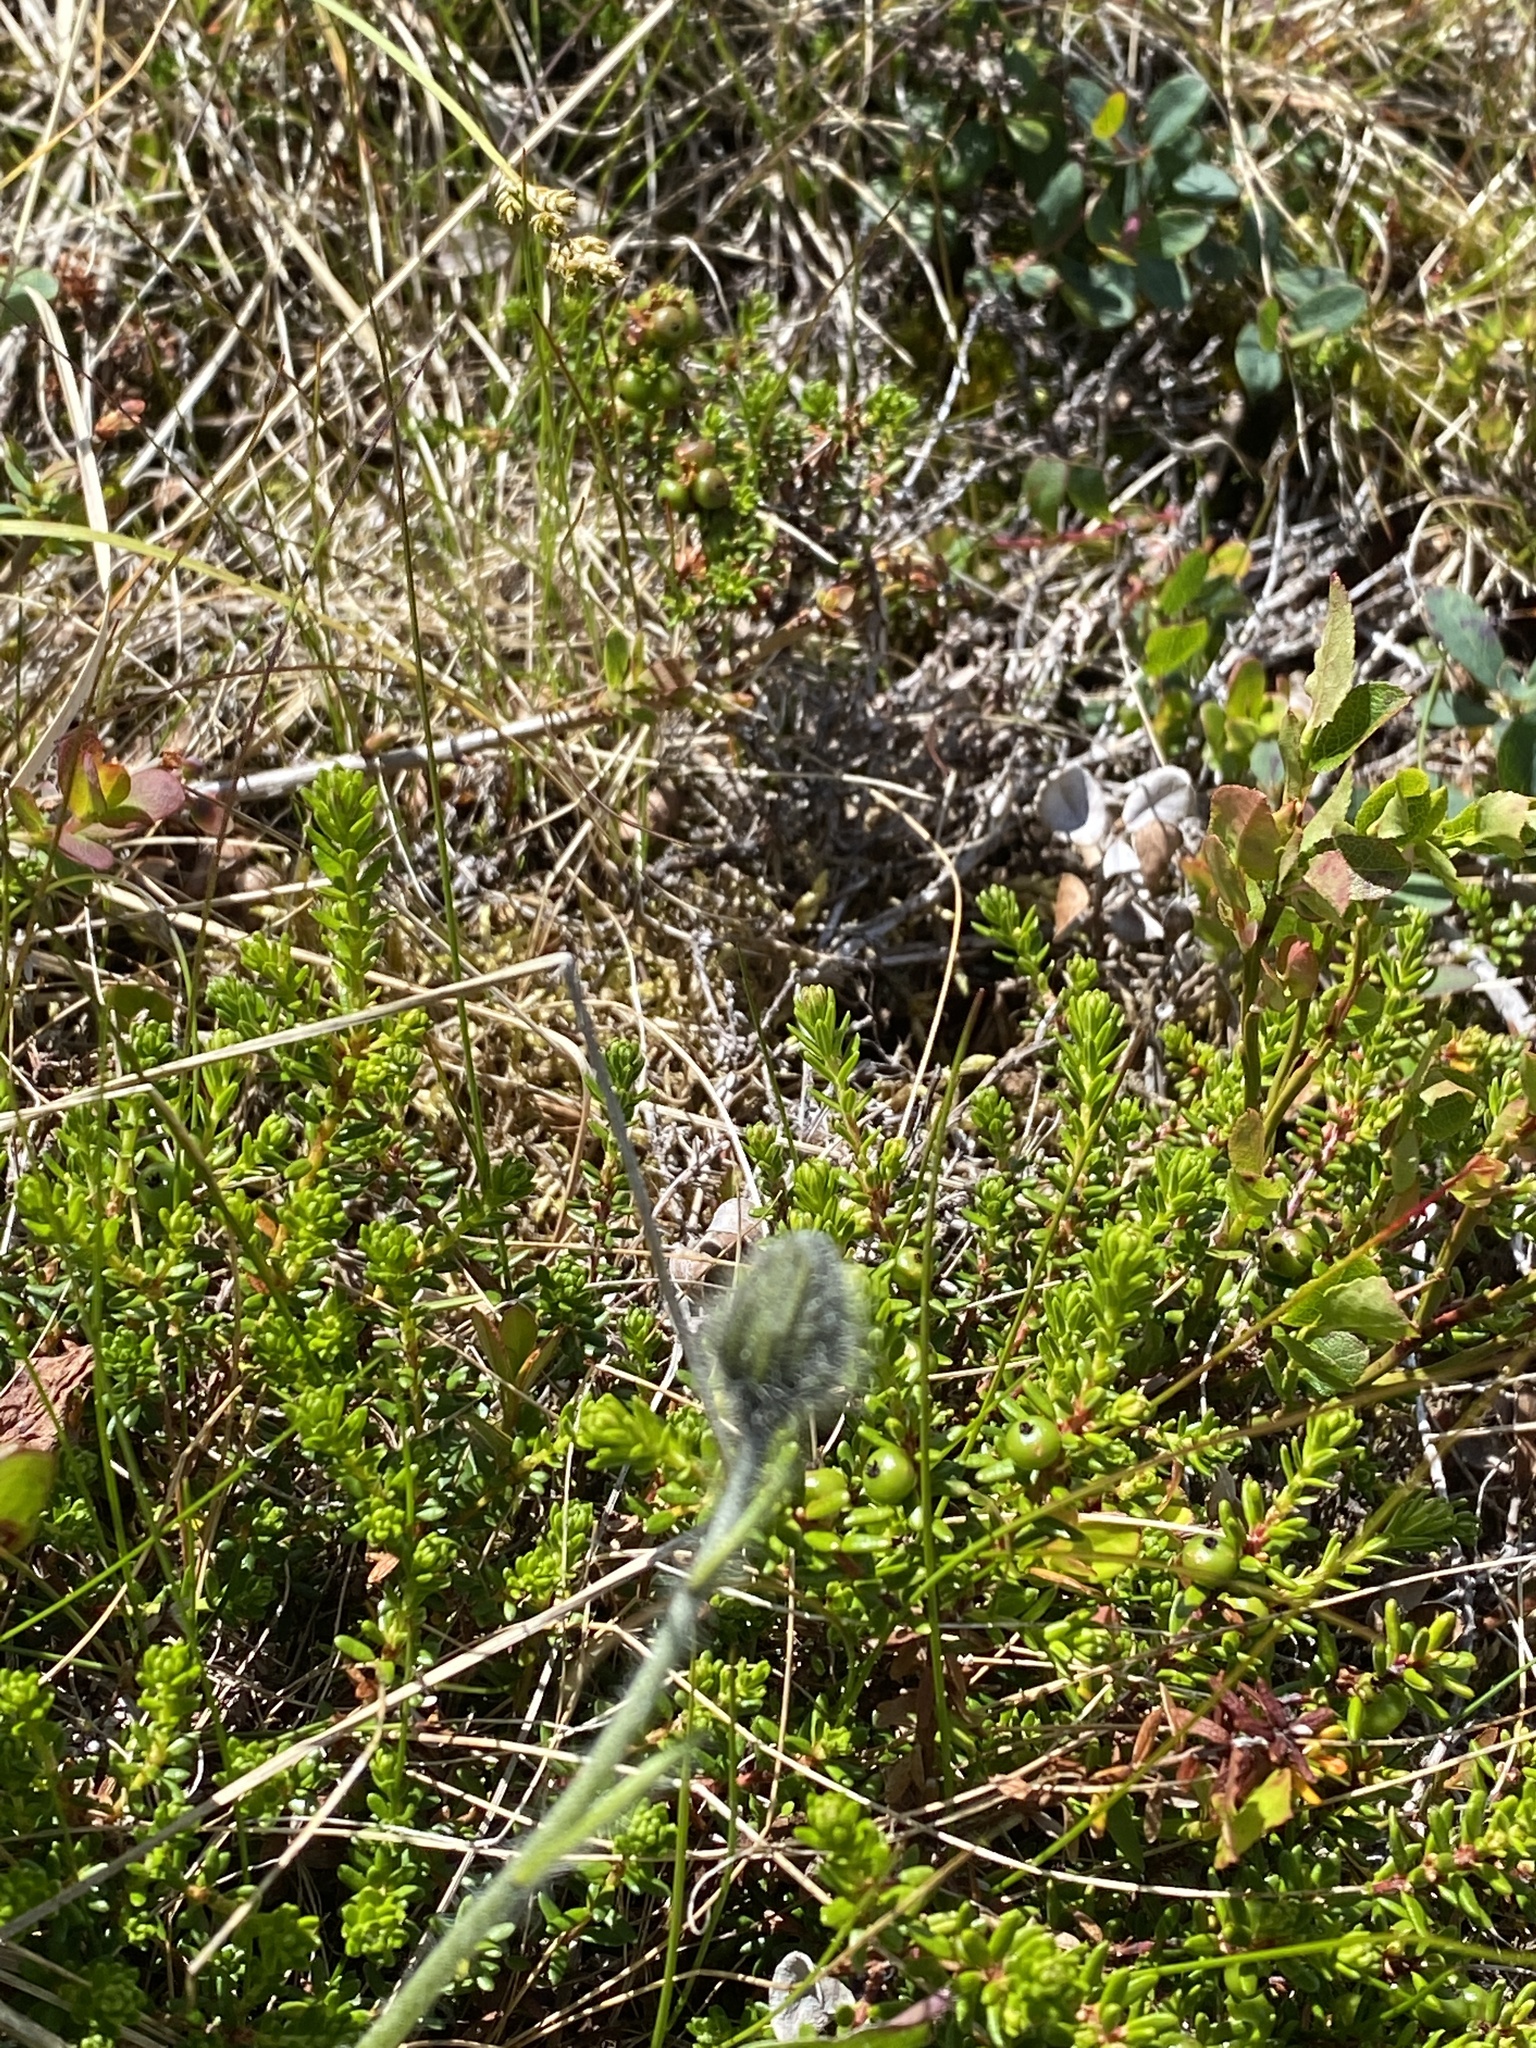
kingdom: Plantae
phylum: Tracheophyta
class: Magnoliopsida
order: Asterales
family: Asteraceae
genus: Hieracium
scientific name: Hieracium alpinum
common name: Alpine hawkweed
